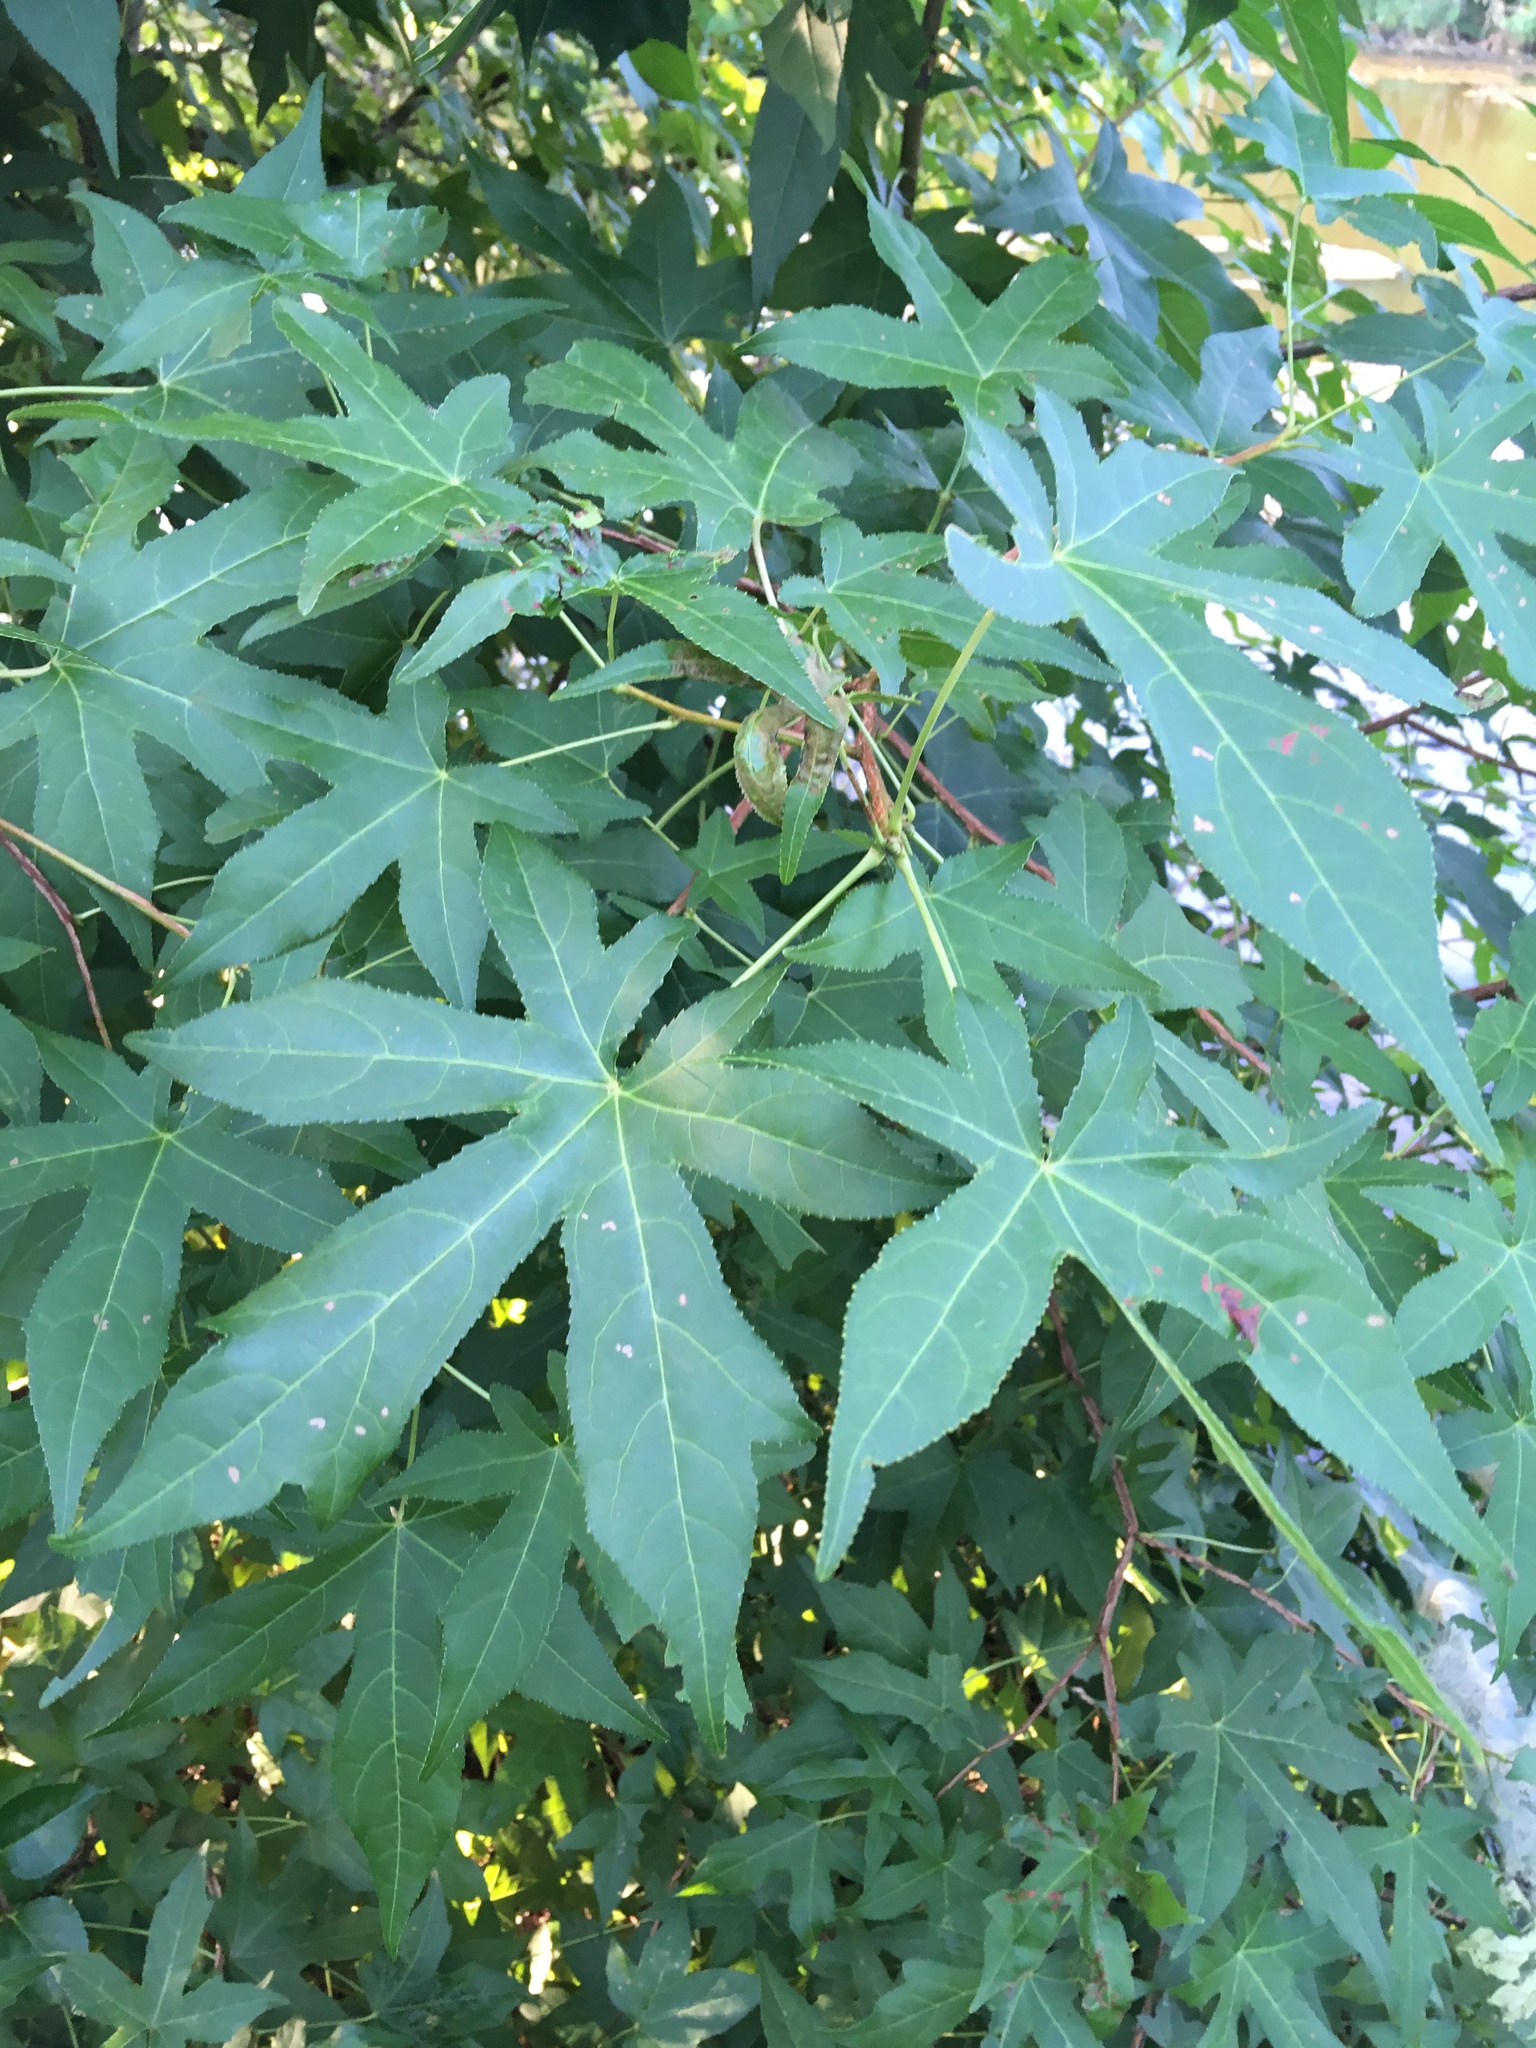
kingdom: Plantae
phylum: Tracheophyta
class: Magnoliopsida
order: Saxifragales
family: Altingiaceae
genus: Liquidambar
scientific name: Liquidambar styraciflua
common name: Sweet gum
